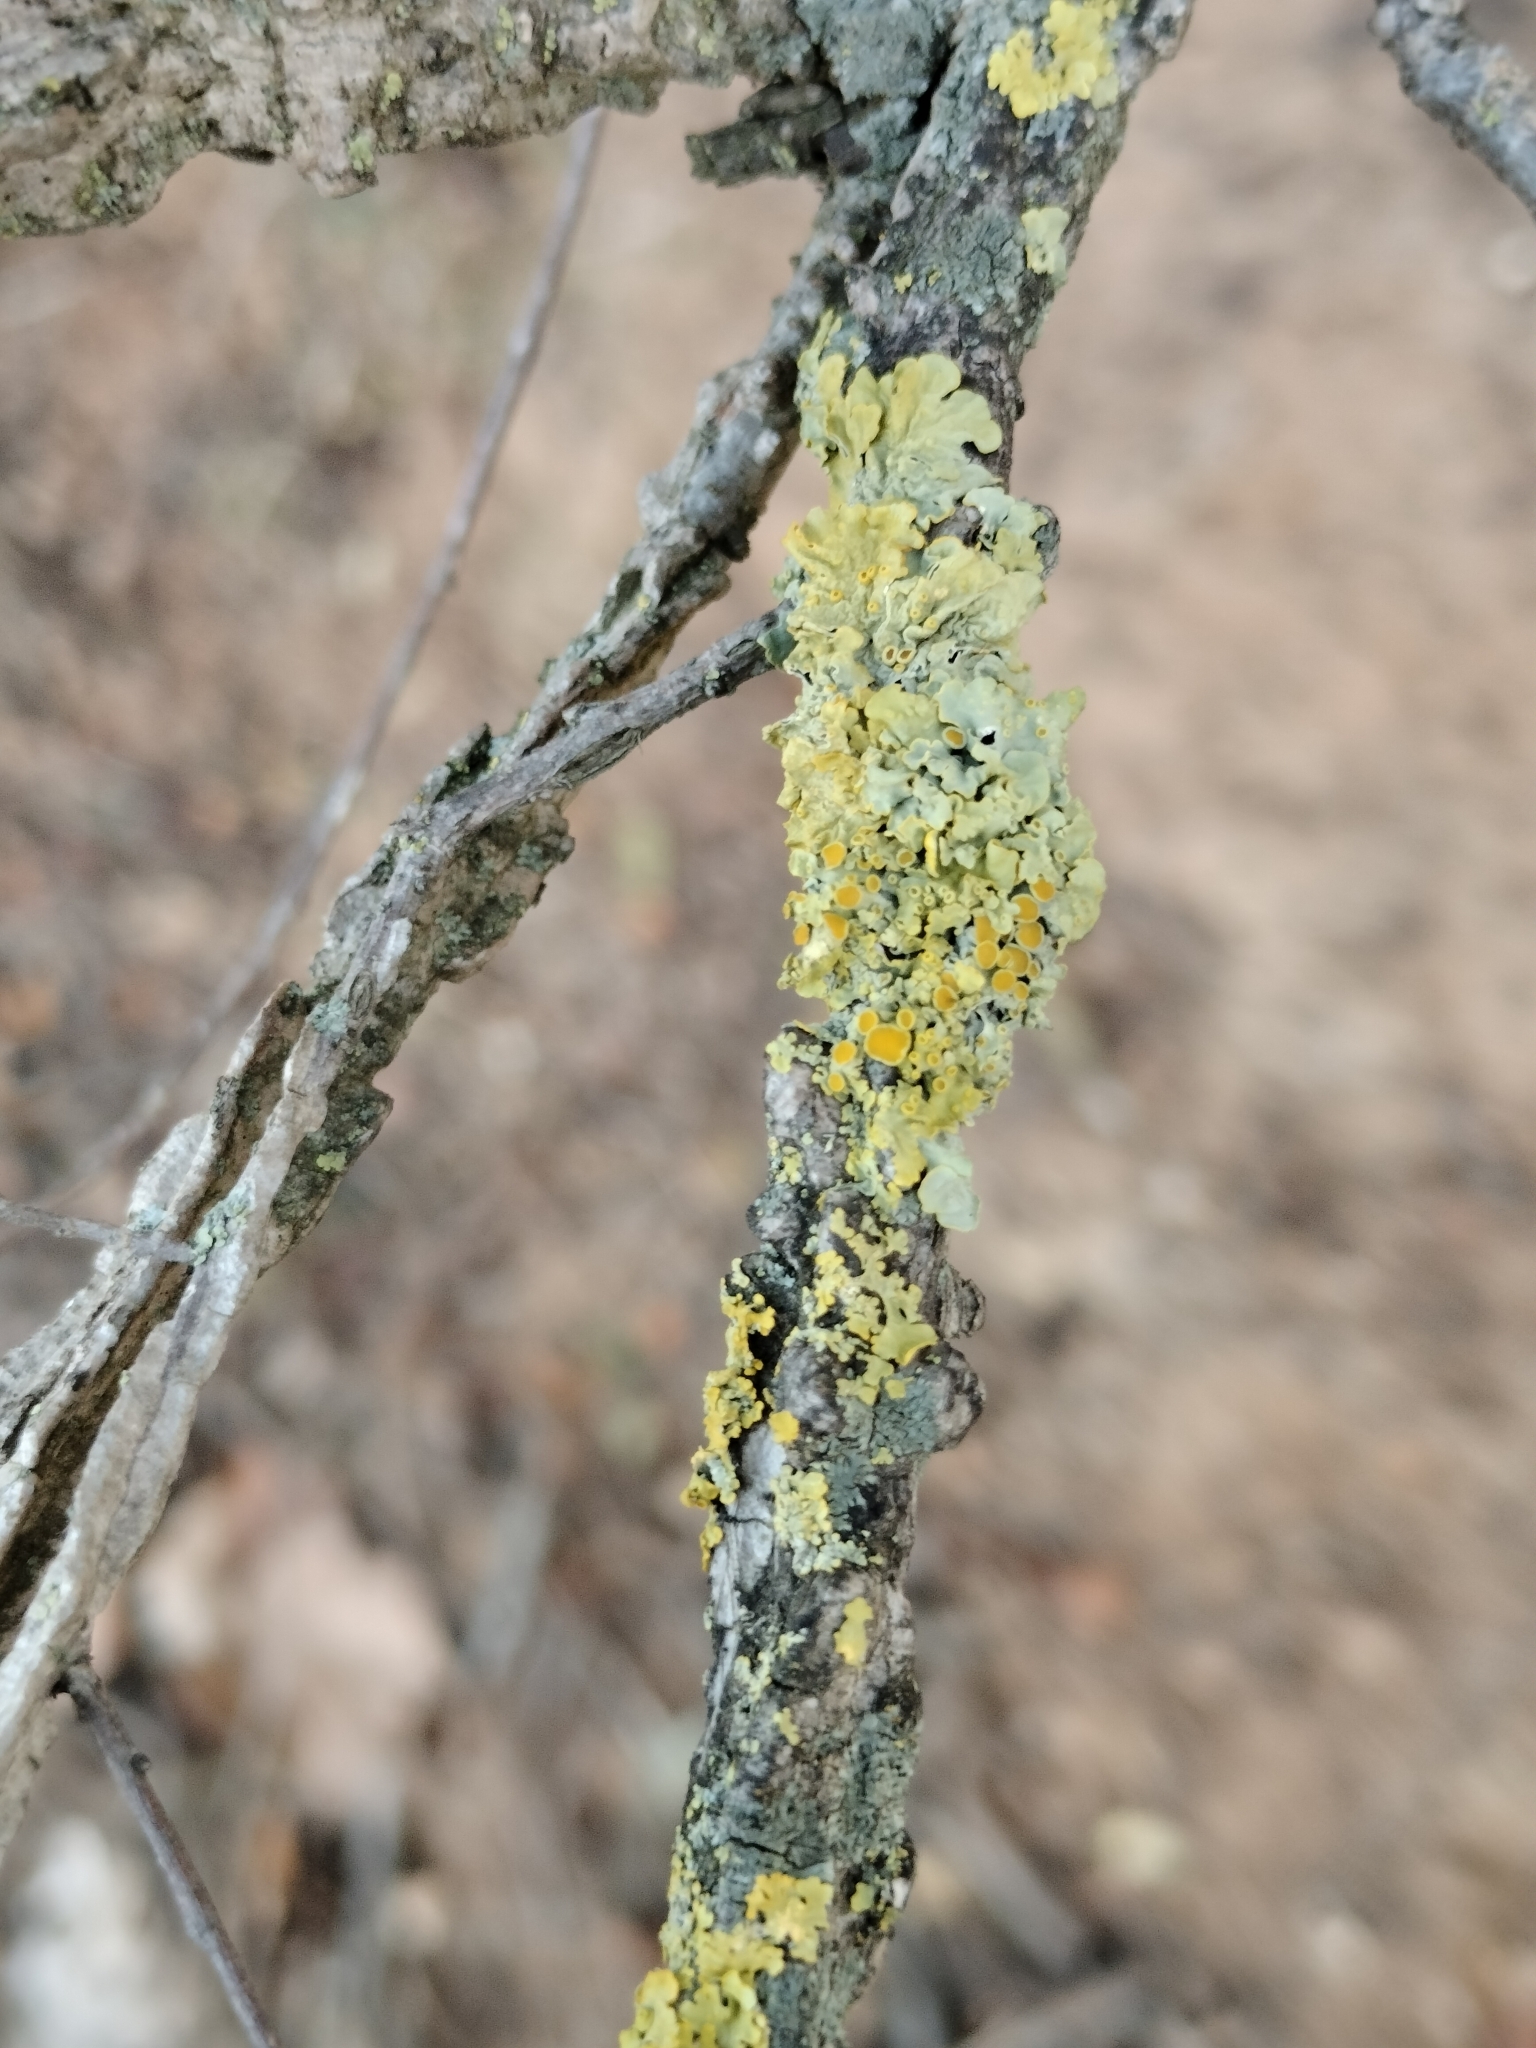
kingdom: Fungi
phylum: Ascomycota
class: Lecanoromycetes
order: Teloschistales
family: Teloschistaceae
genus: Xanthoria
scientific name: Xanthoria parietina
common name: Common orange lichen
